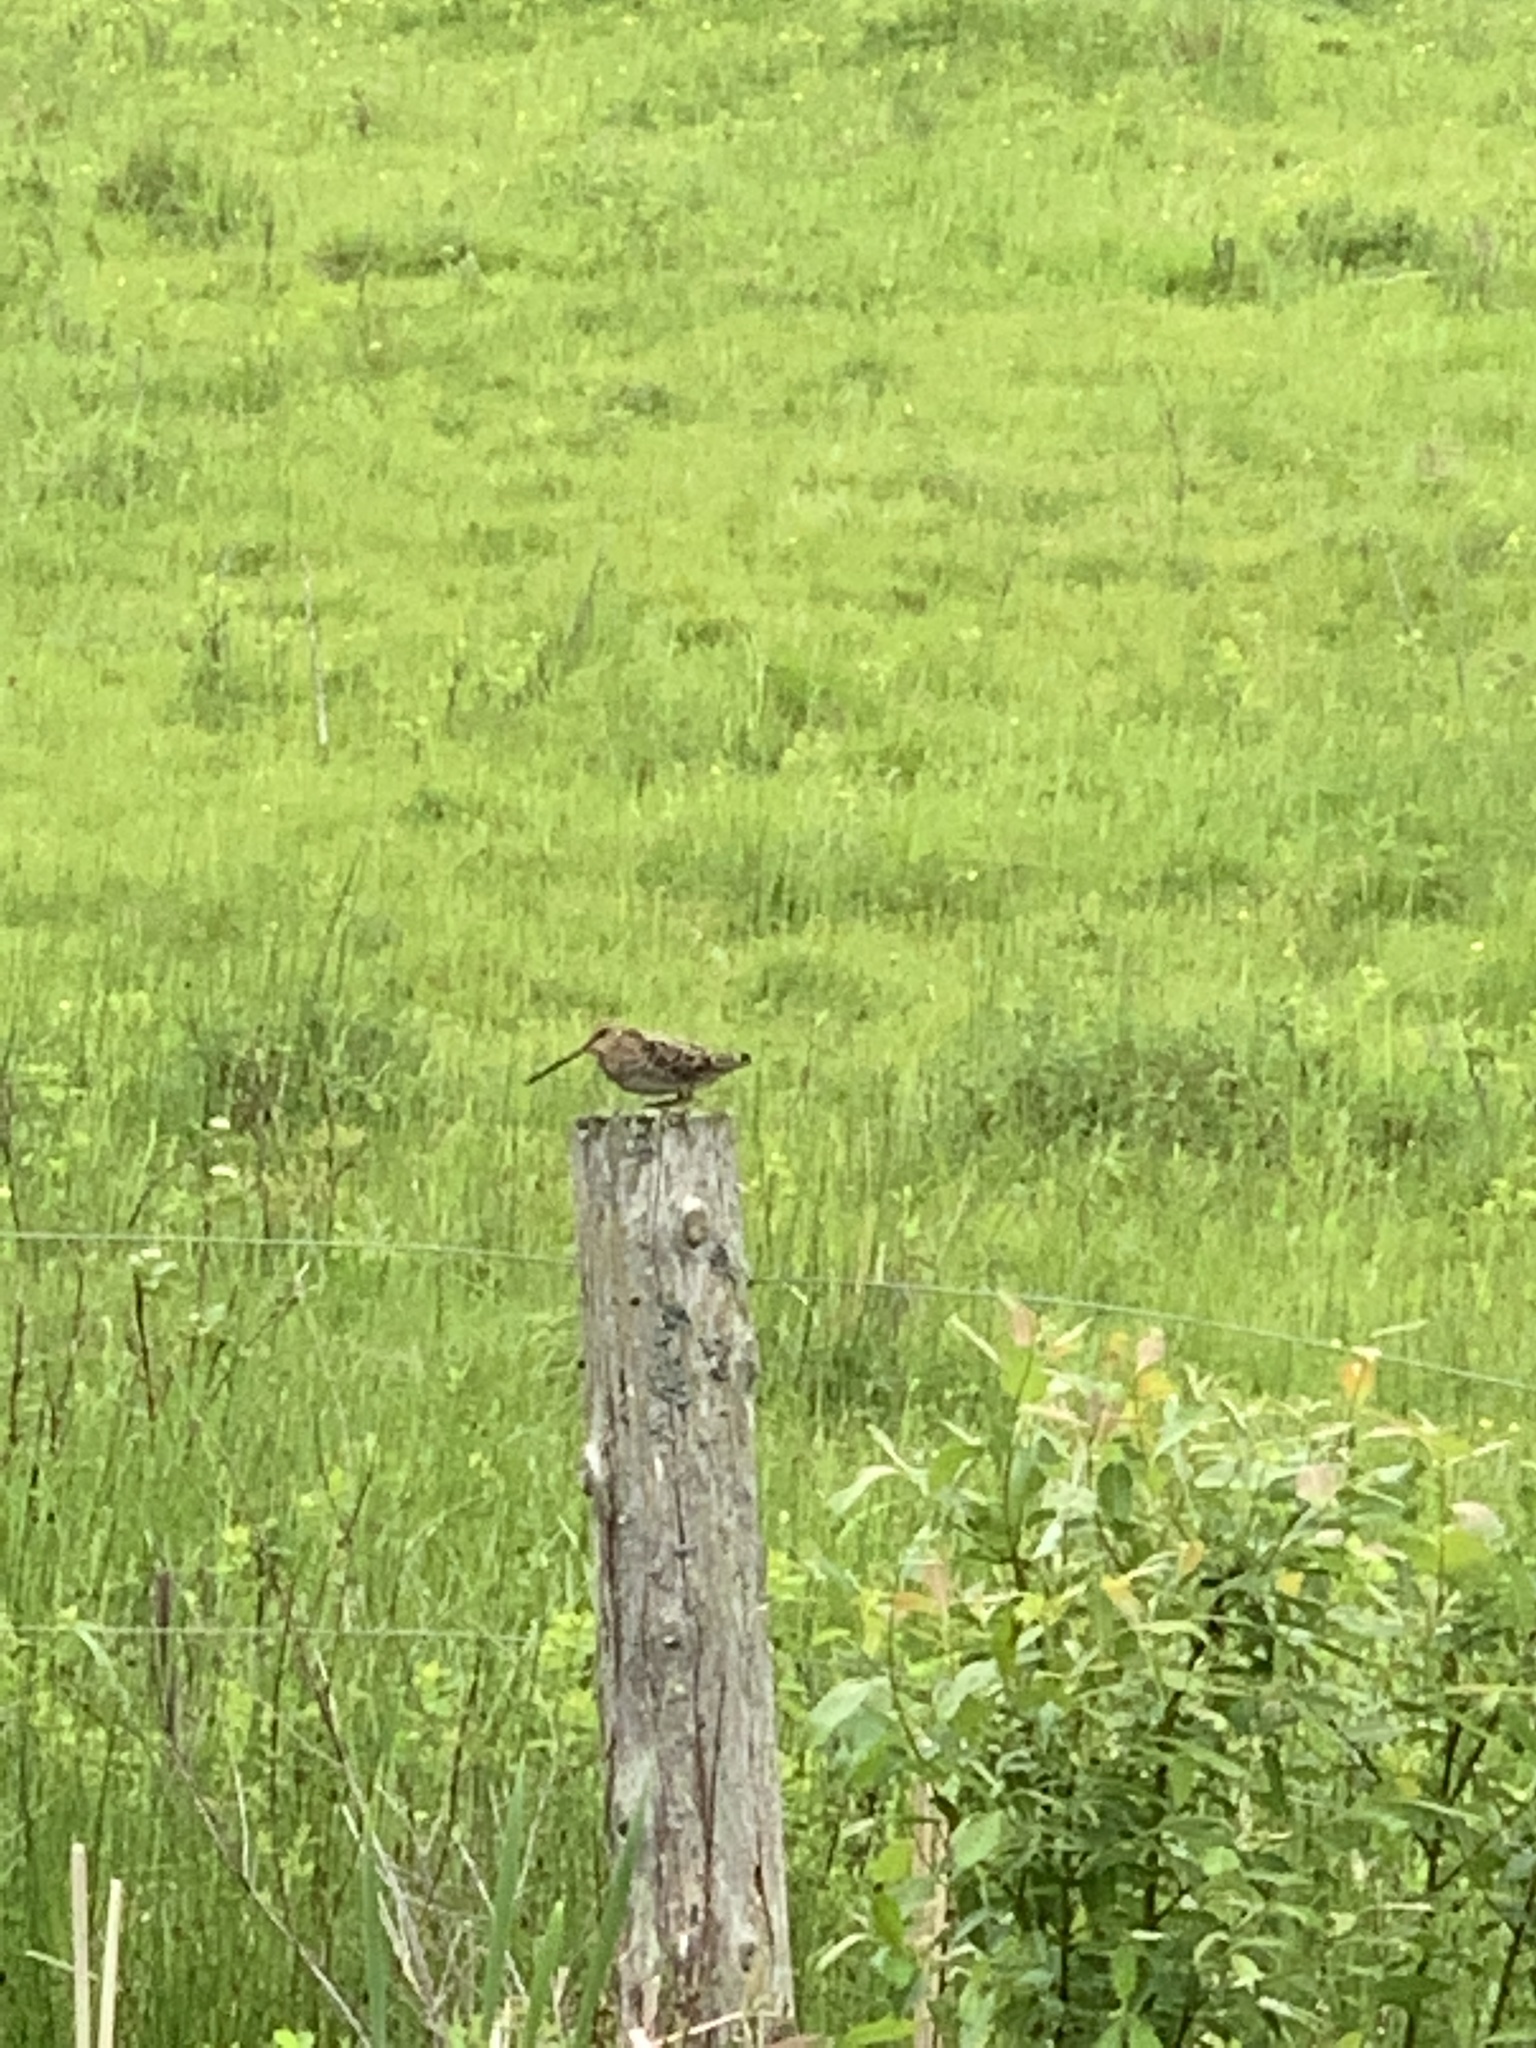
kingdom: Animalia
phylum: Chordata
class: Aves
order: Charadriiformes
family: Scolopacidae
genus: Scolopax
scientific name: Scolopax minor
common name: American woodcock
